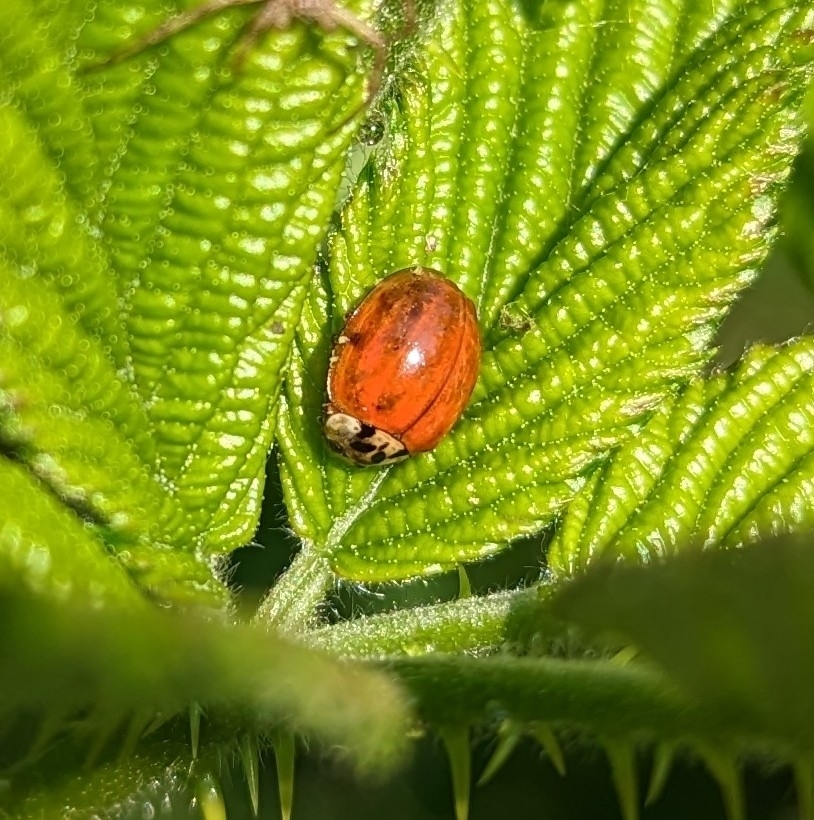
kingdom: Animalia
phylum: Arthropoda
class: Insecta
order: Coleoptera
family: Coccinellidae
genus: Harmonia
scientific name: Harmonia axyridis
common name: Harlequin ladybird
